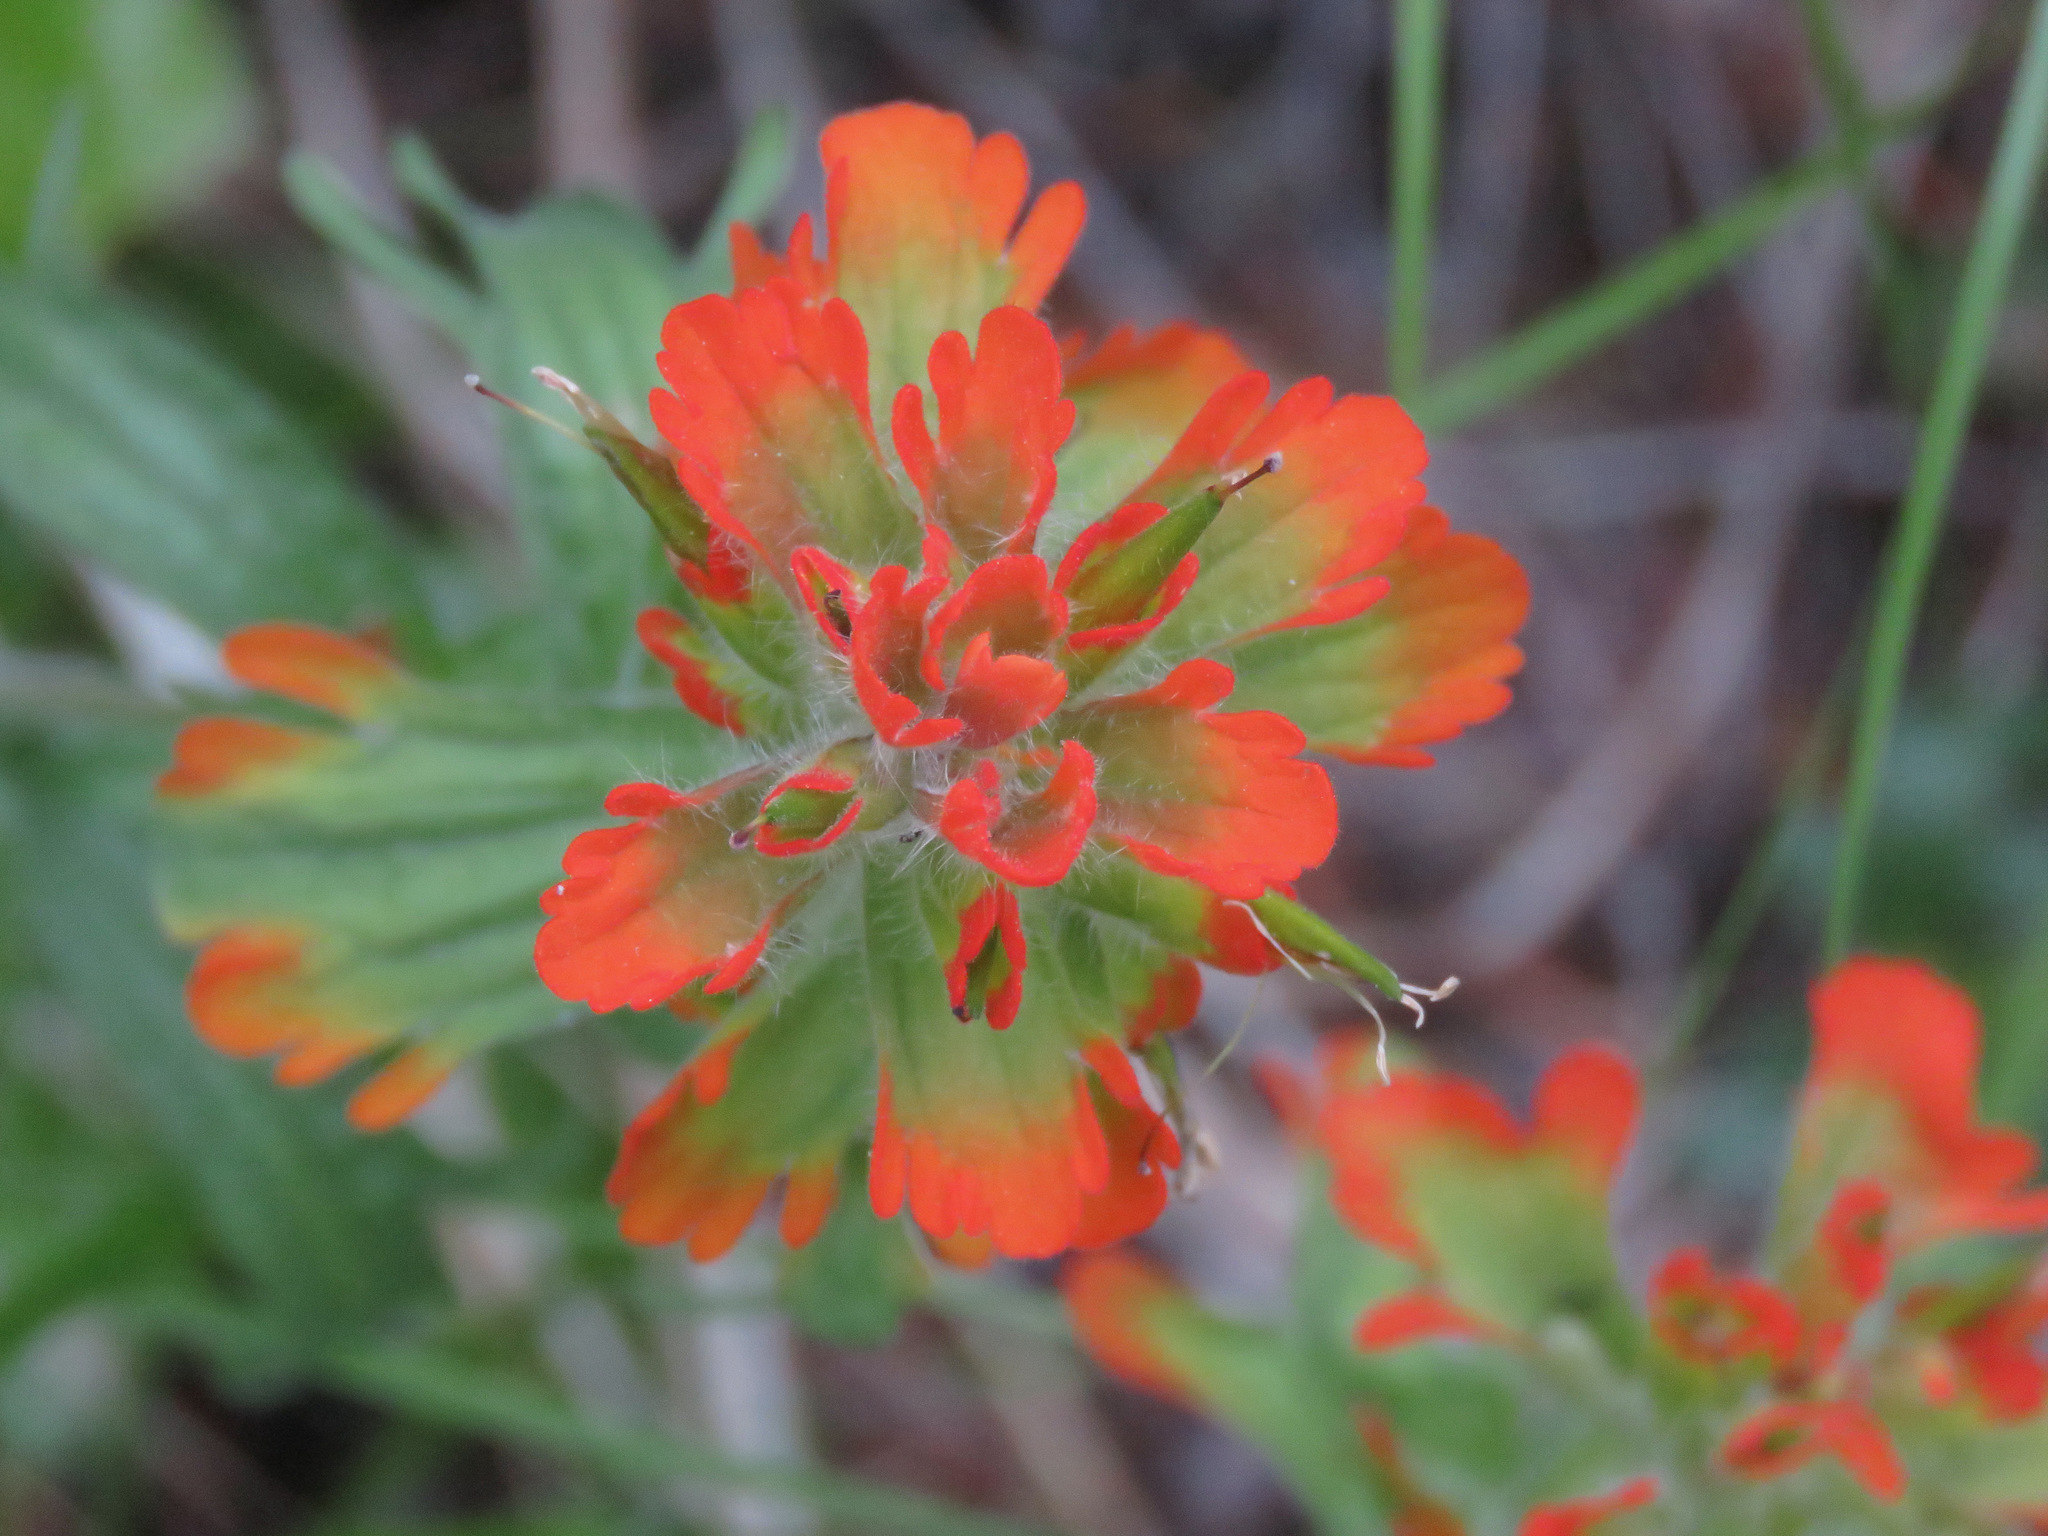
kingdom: Plantae
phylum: Tracheophyta
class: Magnoliopsida
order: Lamiales
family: Orobanchaceae
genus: Castilleja
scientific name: Castilleja hispida
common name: Bristly paintbrush
